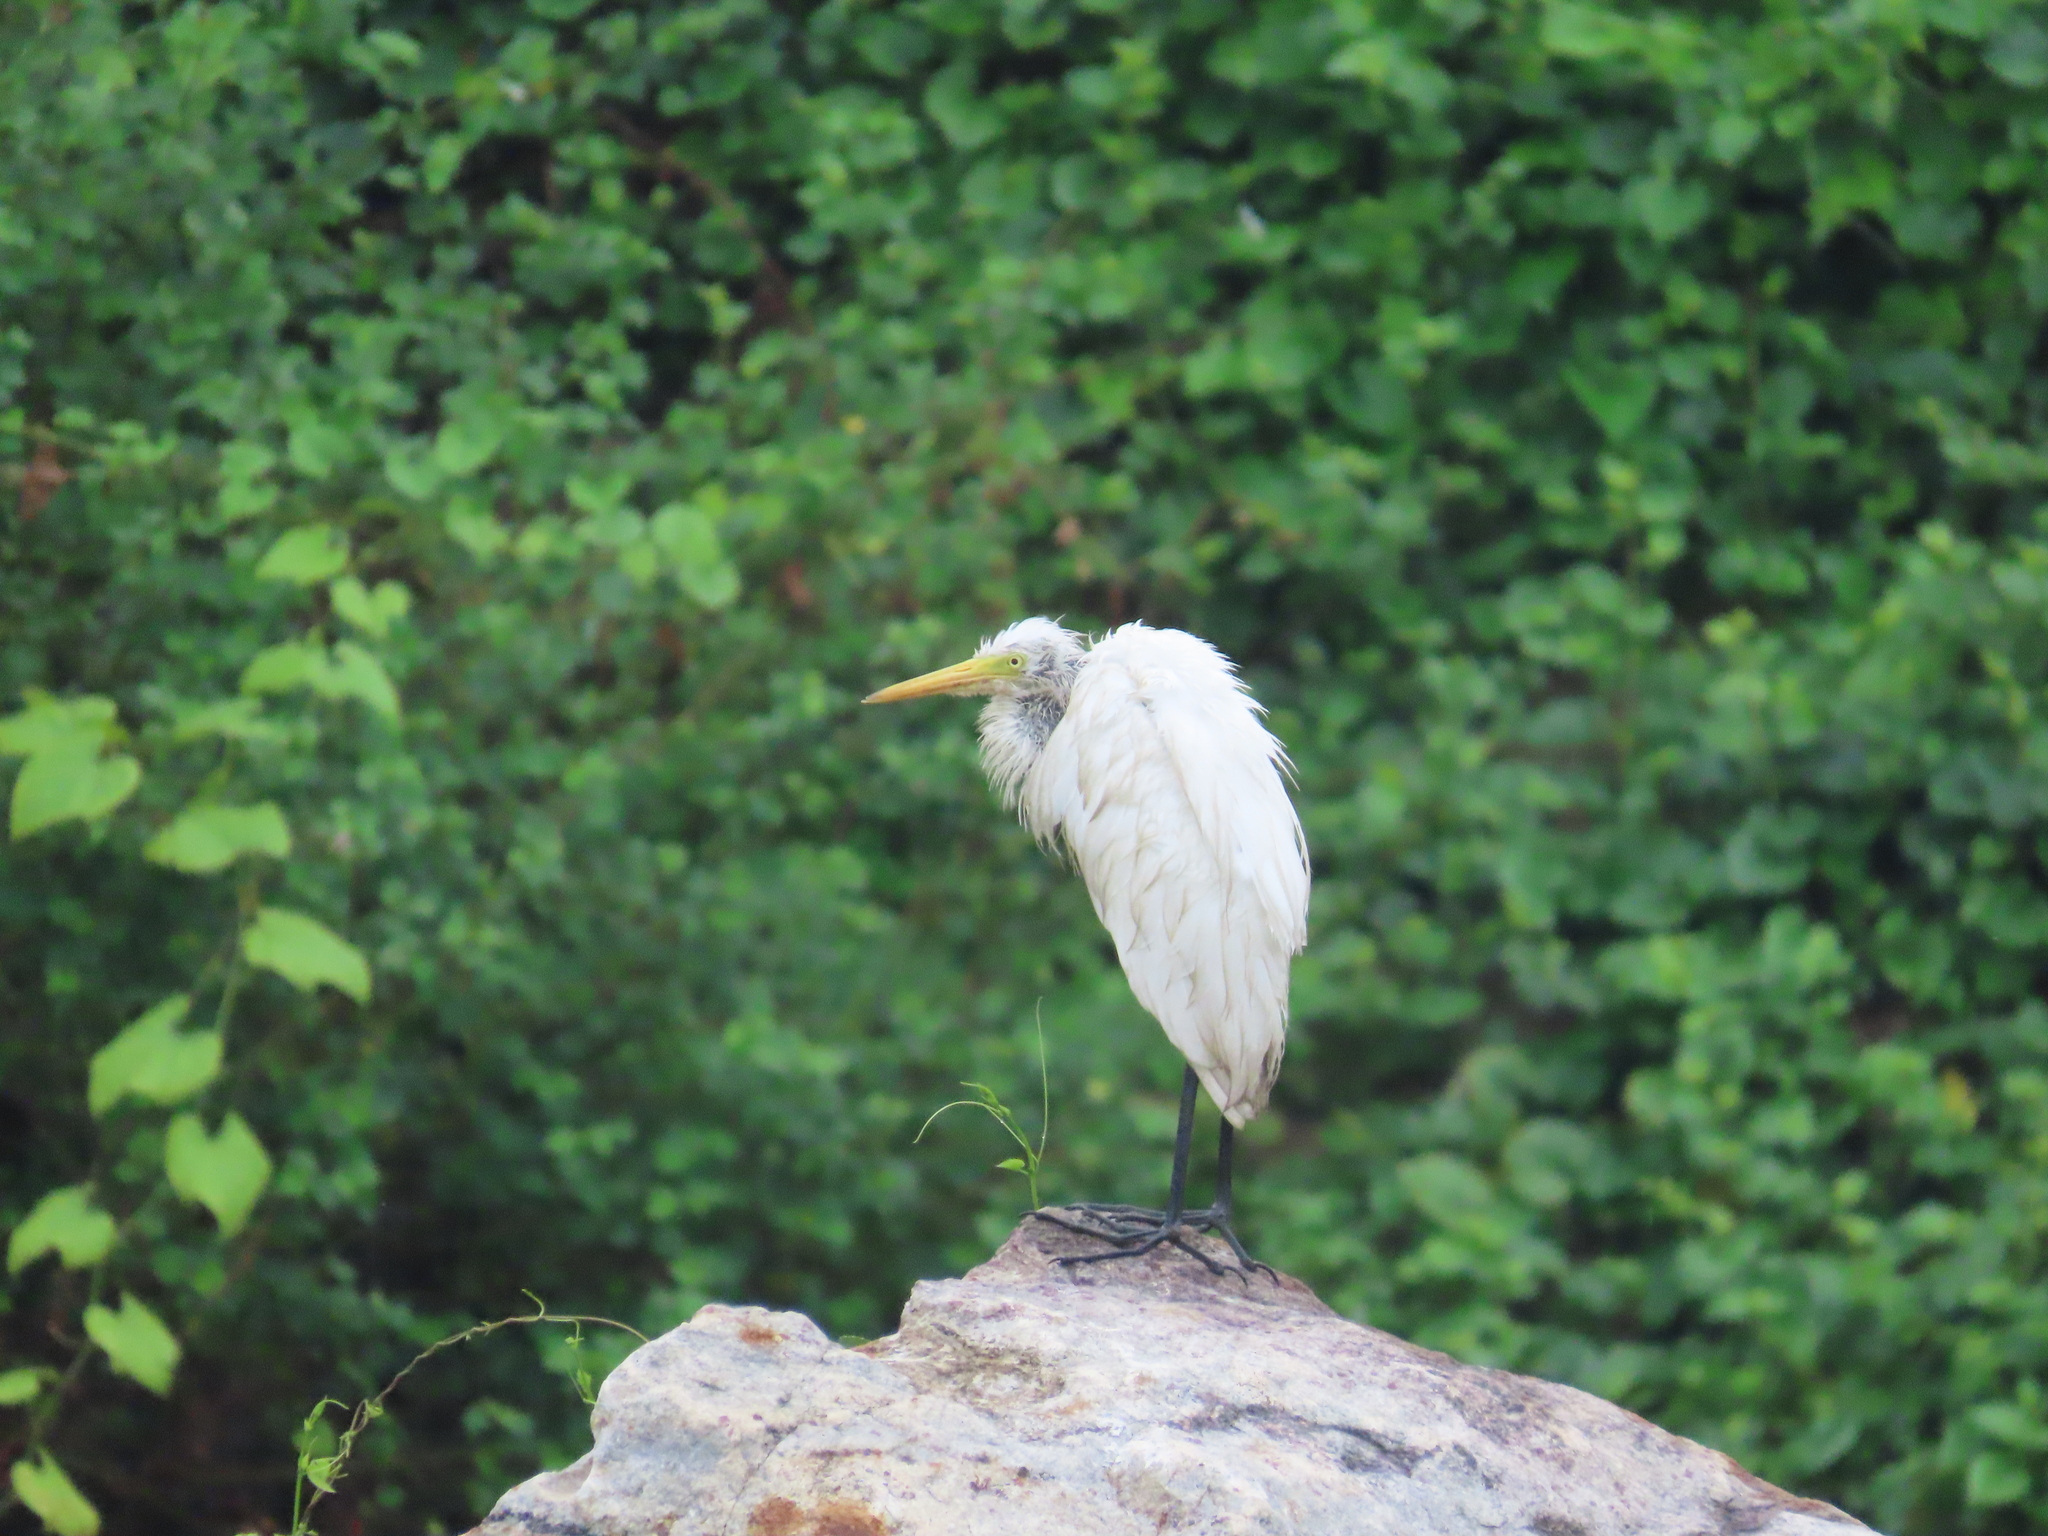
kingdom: Animalia
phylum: Chordata
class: Aves
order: Pelecaniformes
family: Ardeidae
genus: Egretta
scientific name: Egretta intermedia
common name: Intermediate egret
